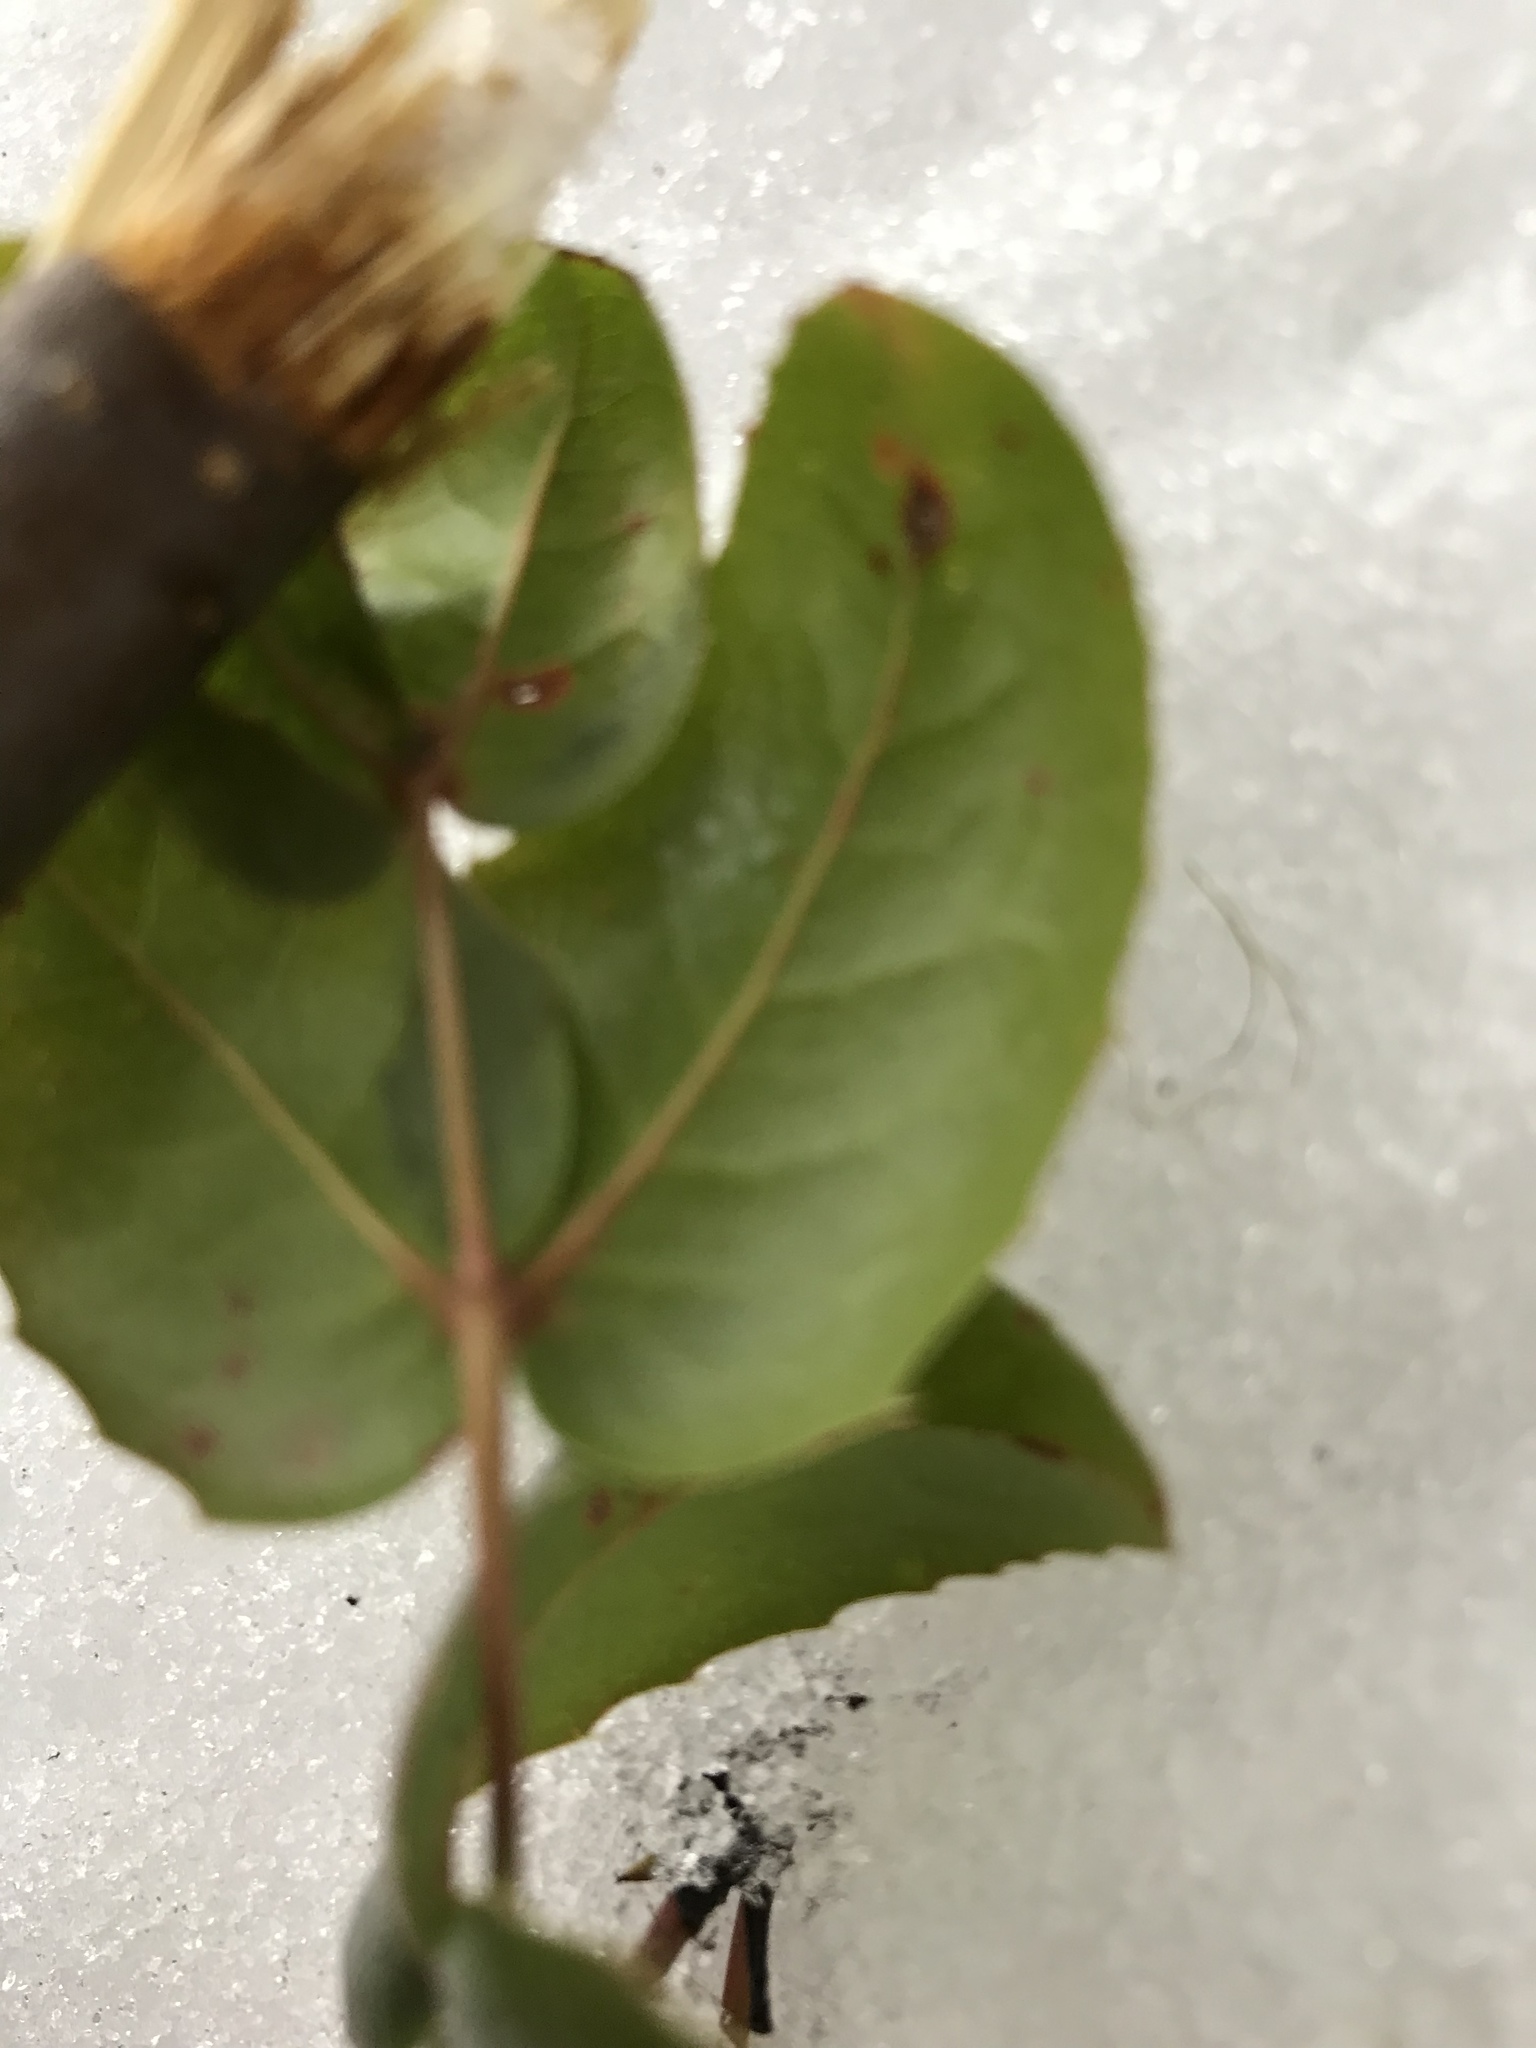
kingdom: Plantae
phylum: Tracheophyta
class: Magnoliopsida
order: Ranunculales
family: Berberidaceae
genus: Mahonia
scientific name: Mahonia aquifolium
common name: Oregon-grape
